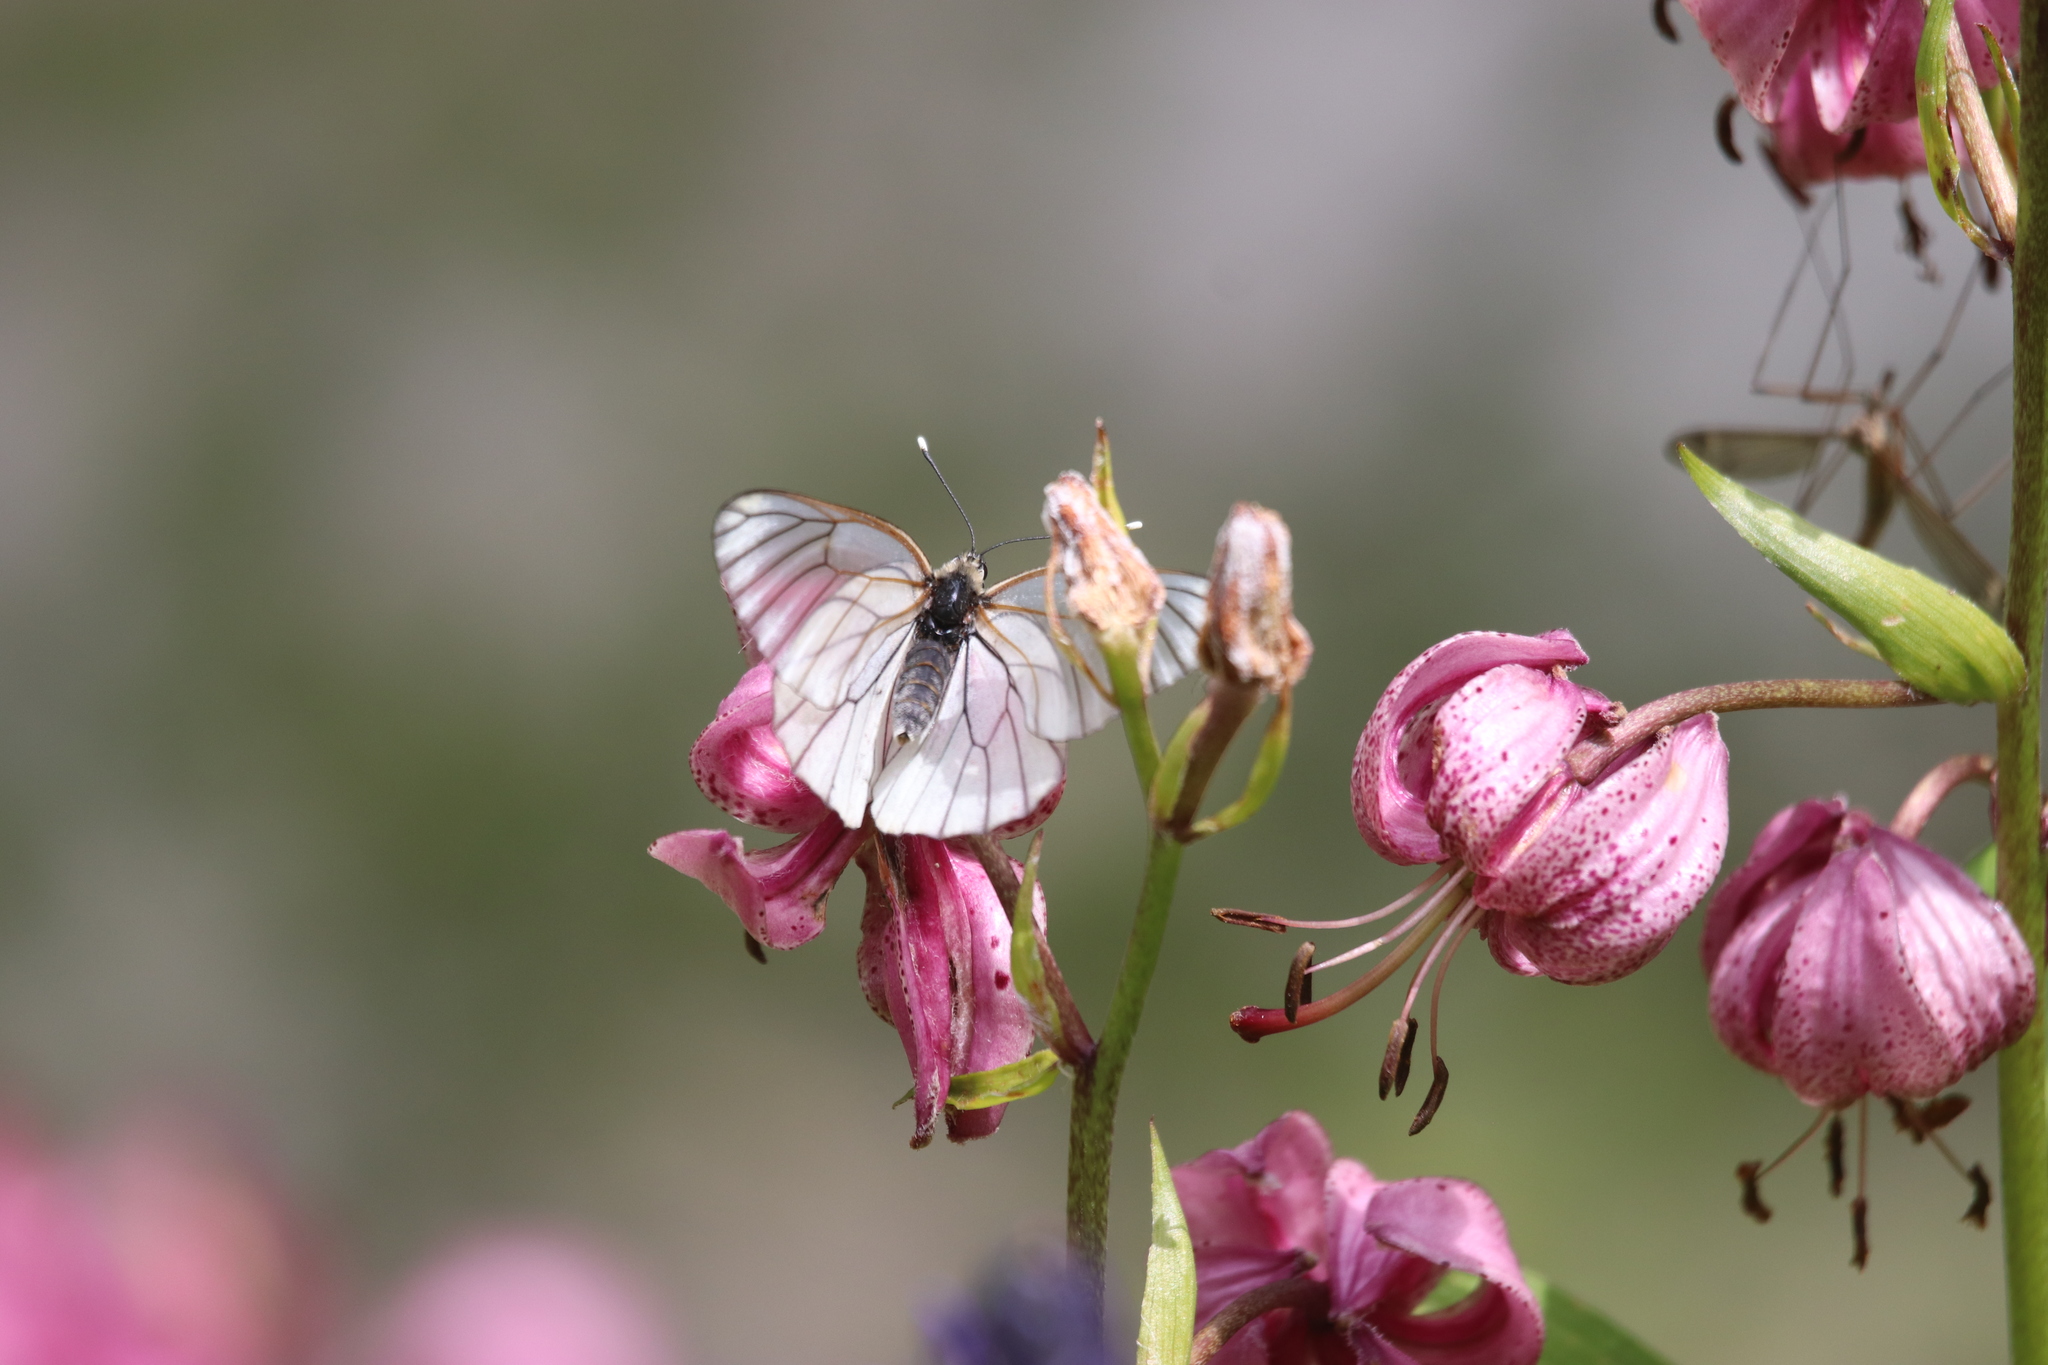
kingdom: Animalia
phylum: Arthropoda
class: Insecta
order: Lepidoptera
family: Pieridae
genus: Aporia
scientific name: Aporia crataegi
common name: Black-veined white
